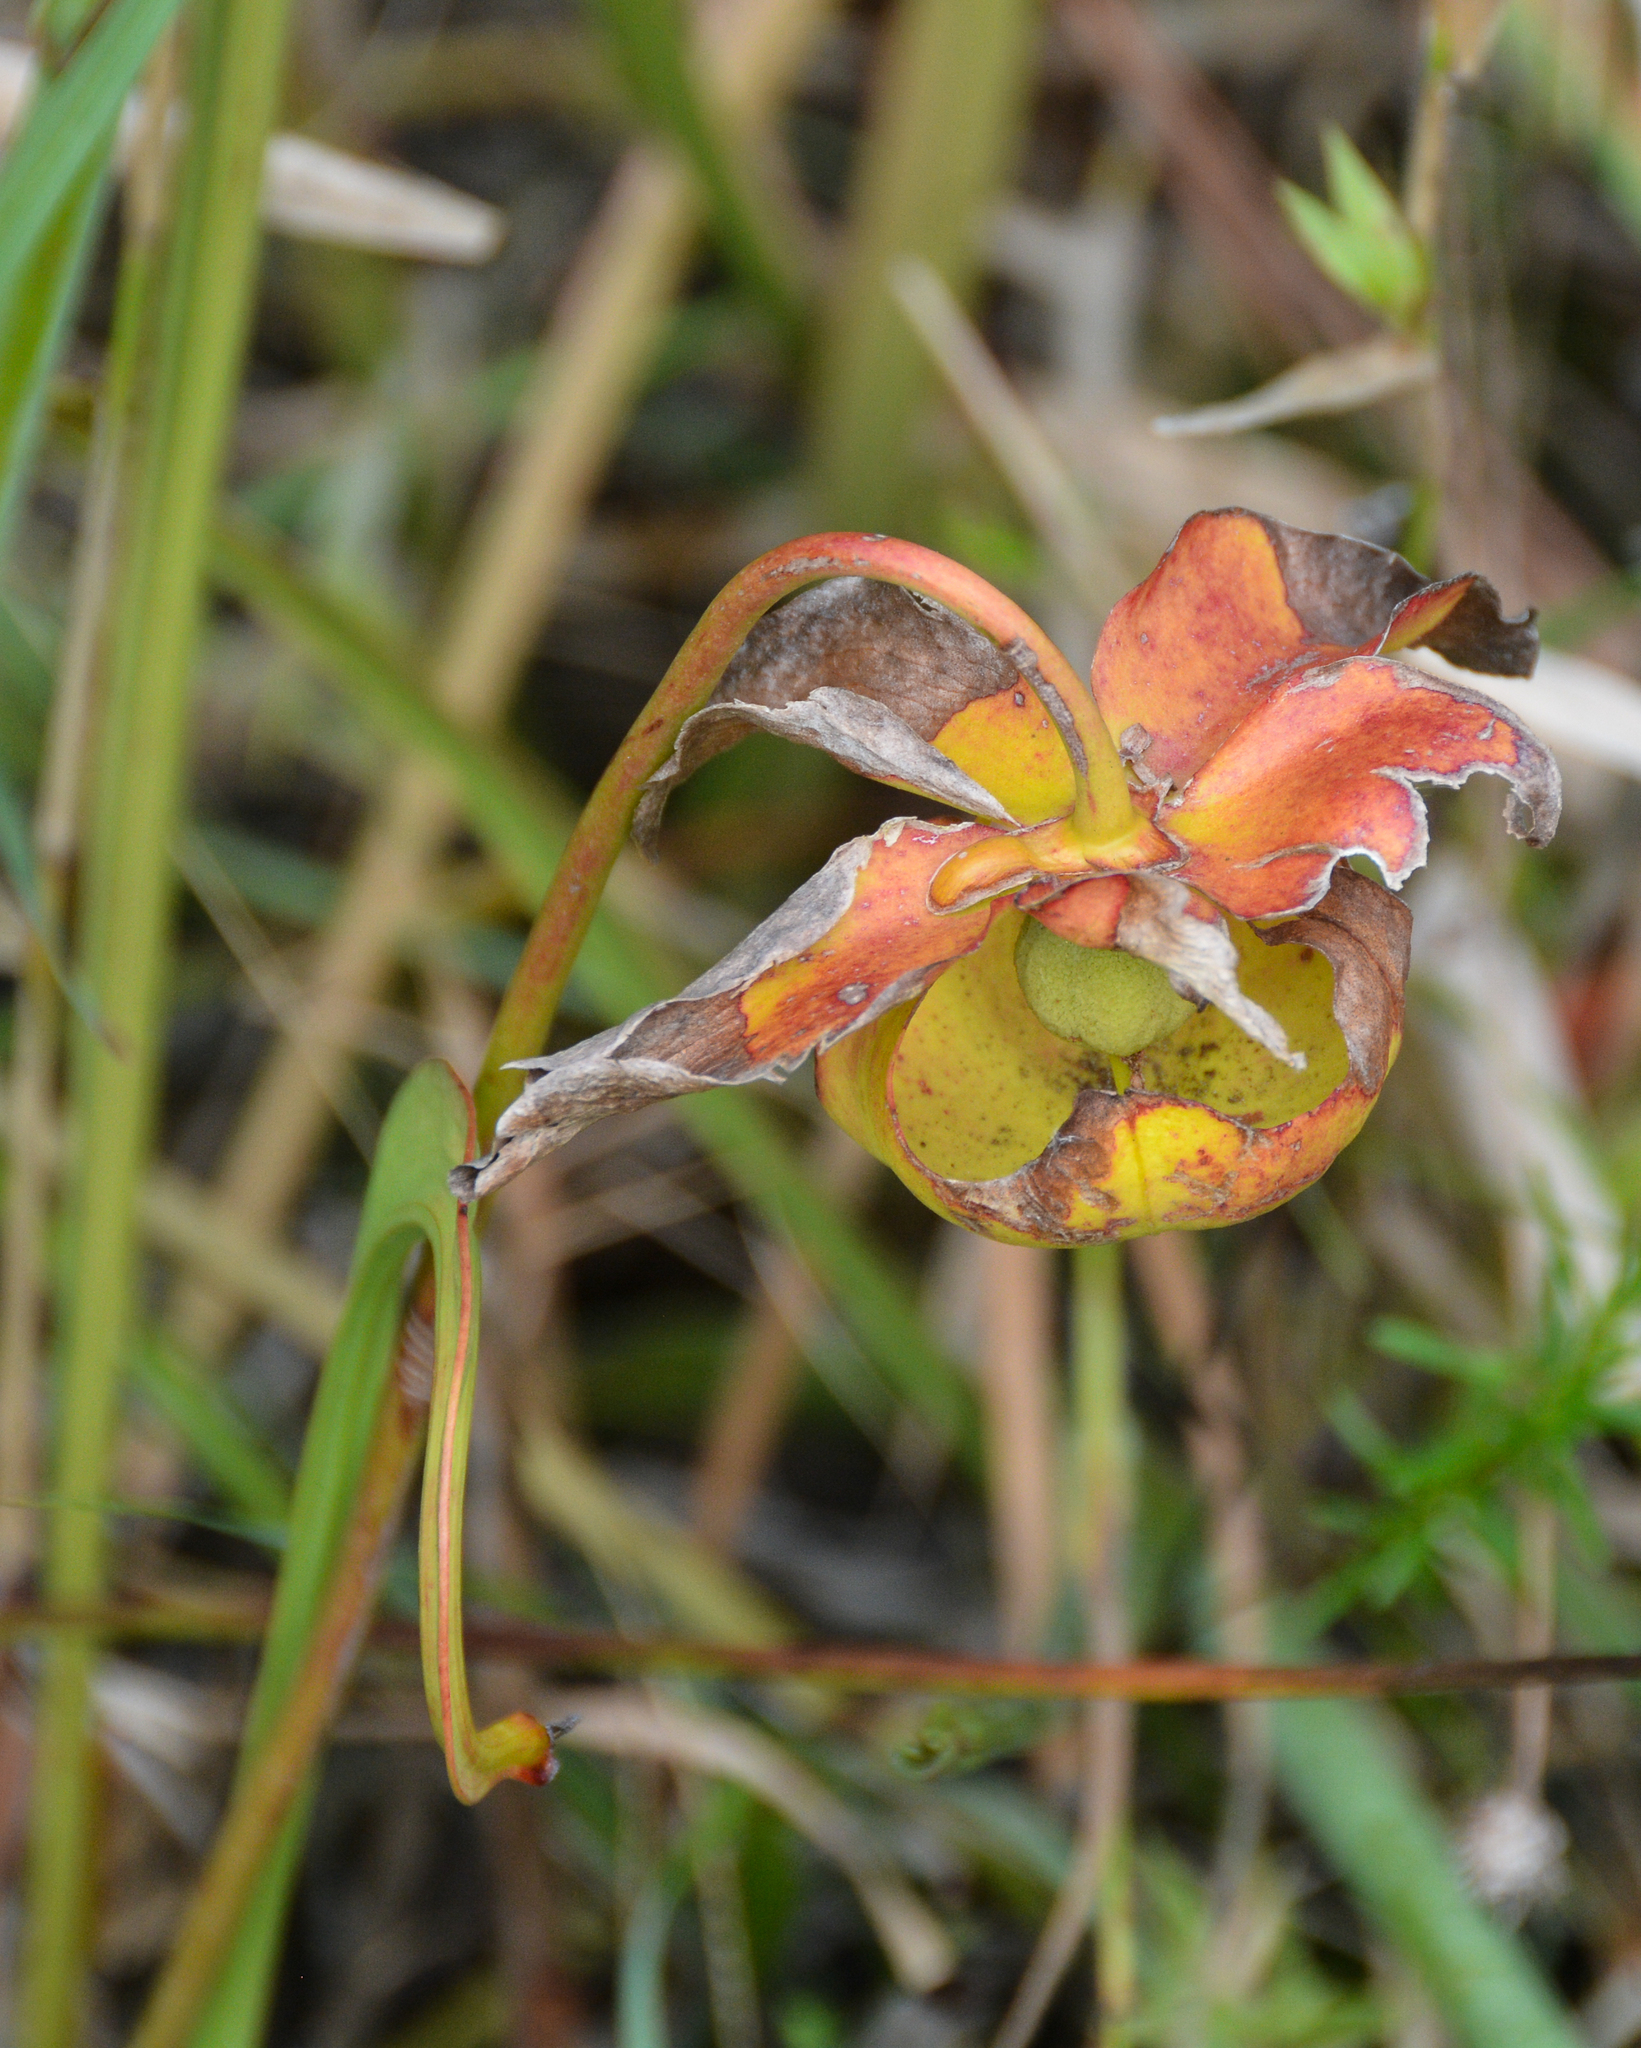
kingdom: Plantae
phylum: Tracheophyta
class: Magnoliopsida
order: Ericales
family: Sarraceniaceae
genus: Sarracenia
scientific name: Sarracenia alata
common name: Yellow trumpets
